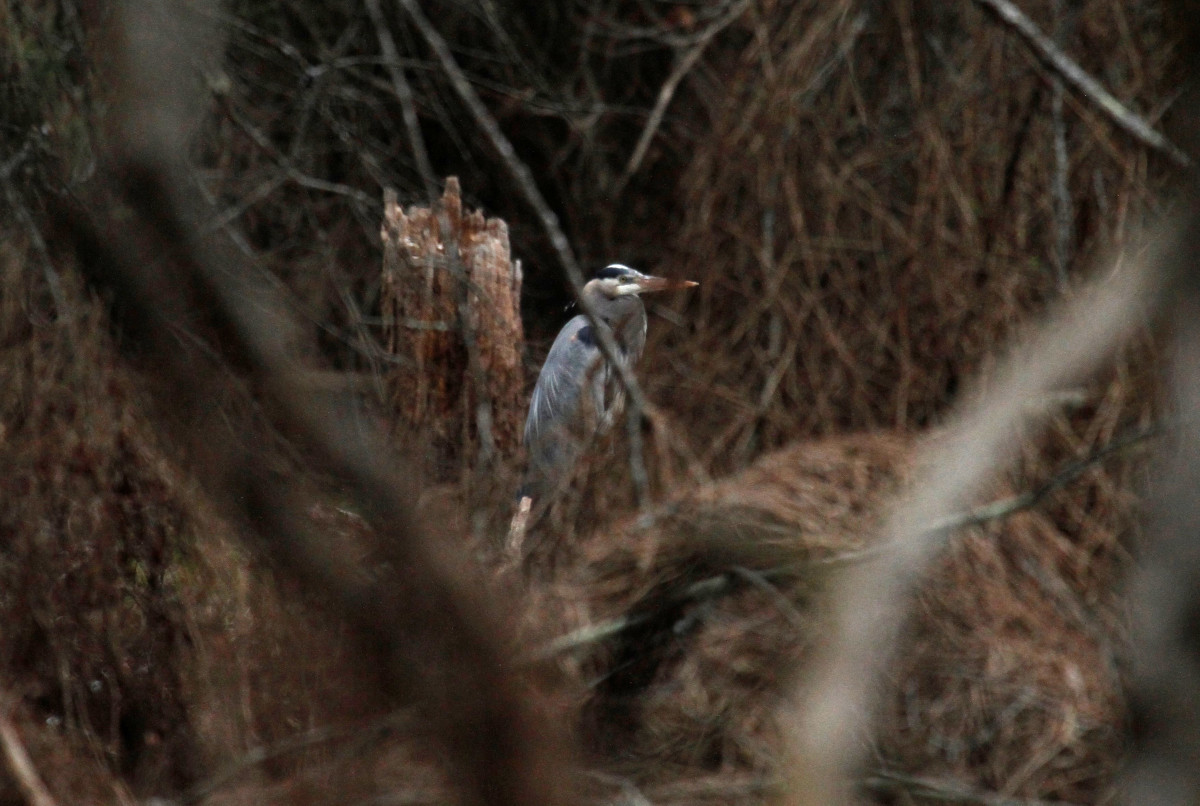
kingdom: Animalia
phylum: Chordata
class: Aves
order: Pelecaniformes
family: Ardeidae
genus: Ardea
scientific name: Ardea herodias
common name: Great blue heron
